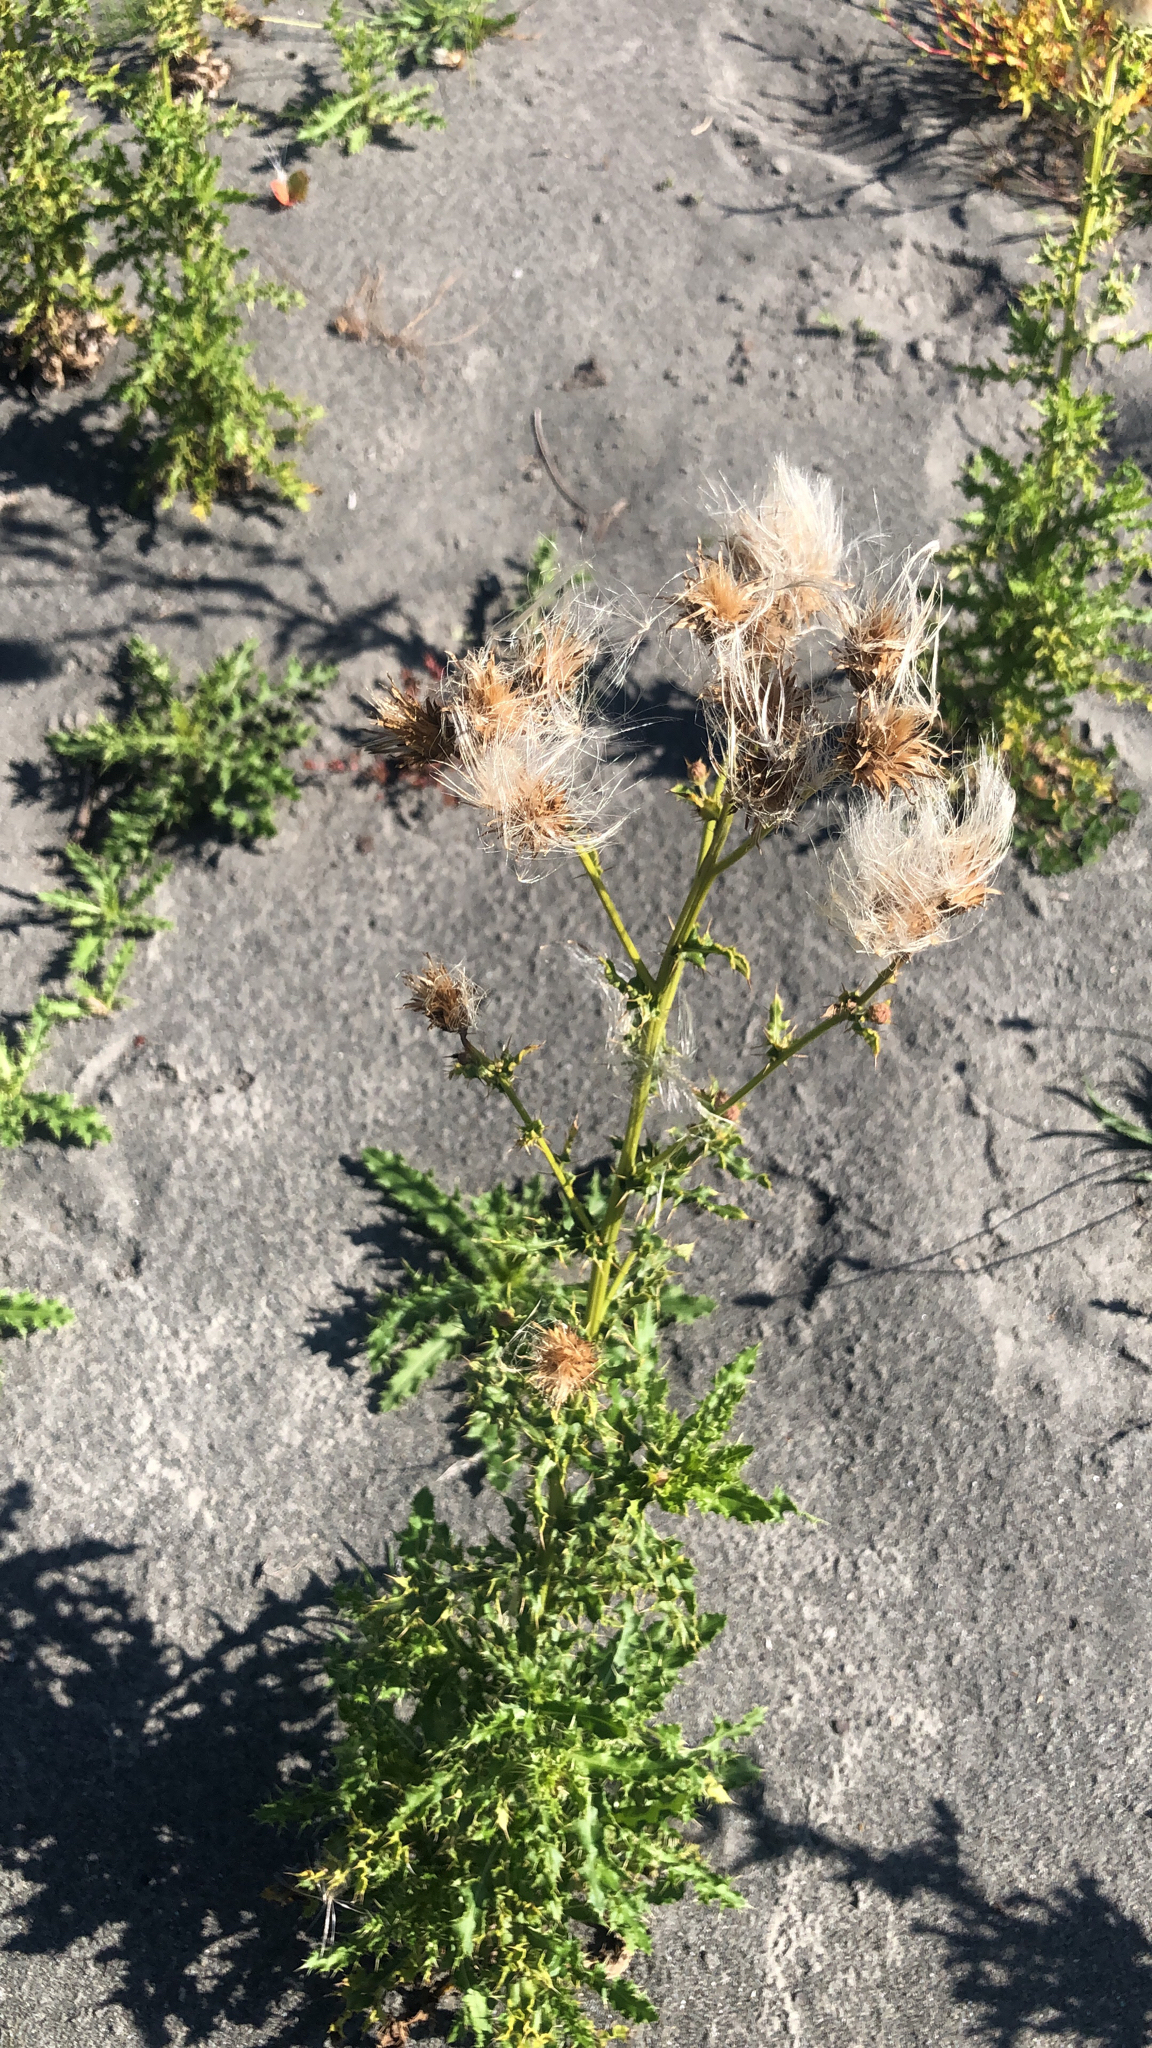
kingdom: Plantae
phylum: Tracheophyta
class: Magnoliopsida
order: Asterales
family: Asteraceae
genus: Cirsium
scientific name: Cirsium arvense
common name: Creeping thistle
